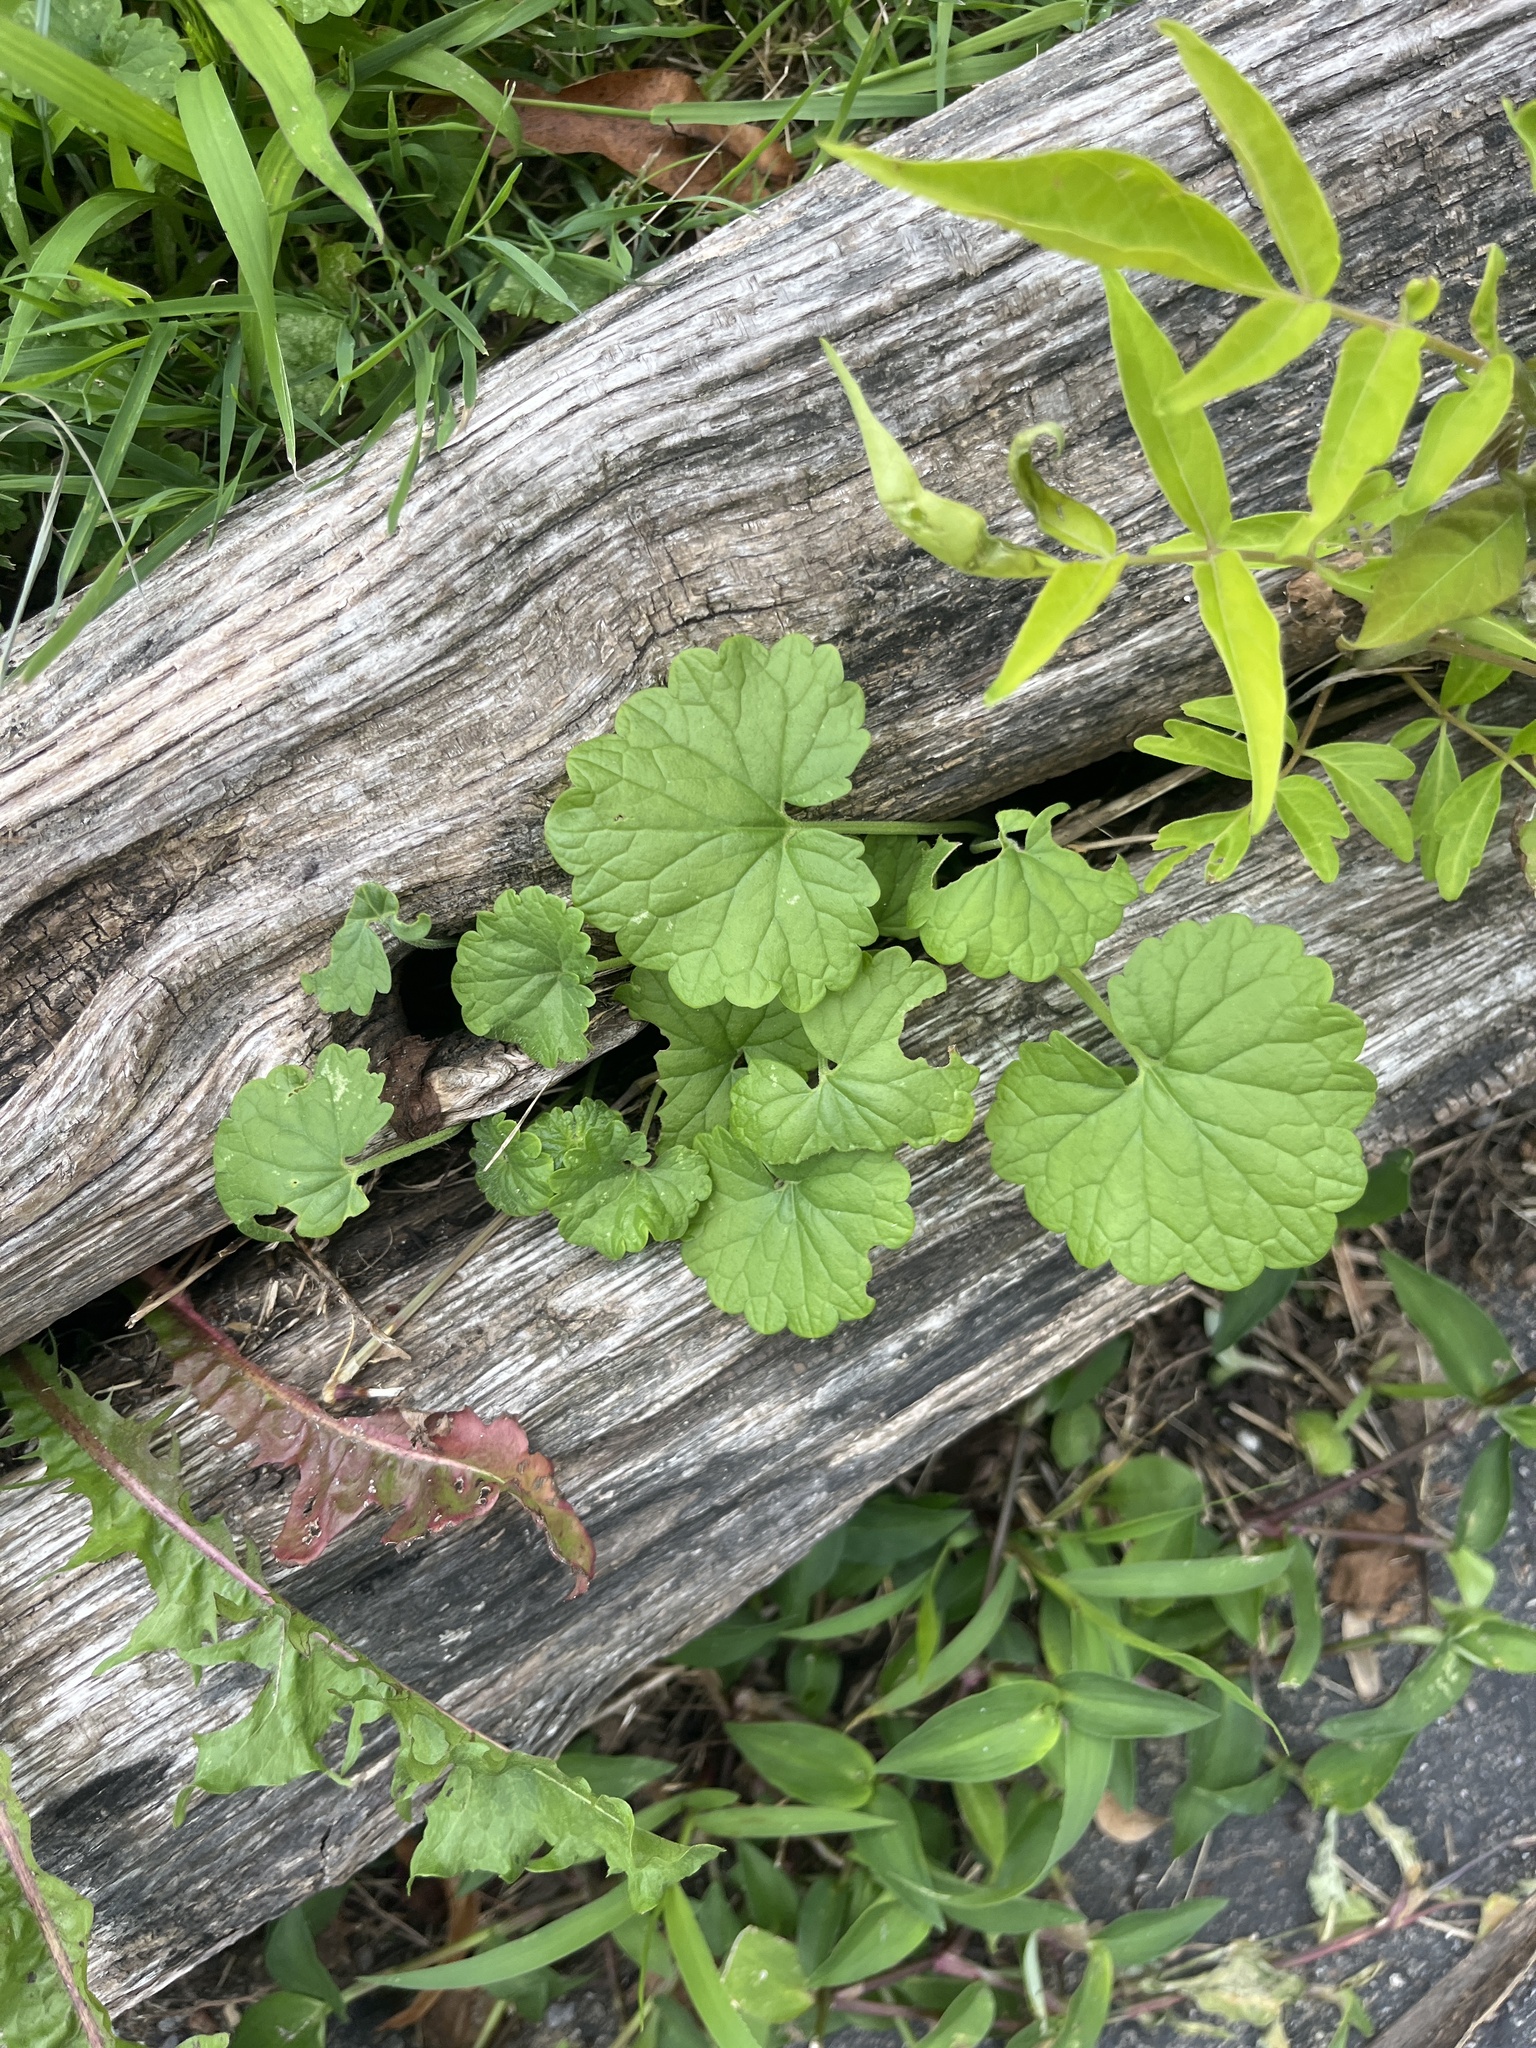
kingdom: Plantae
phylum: Tracheophyta
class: Magnoliopsida
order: Brassicales
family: Brassicaceae
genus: Alliaria
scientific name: Alliaria petiolata
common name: Garlic mustard
